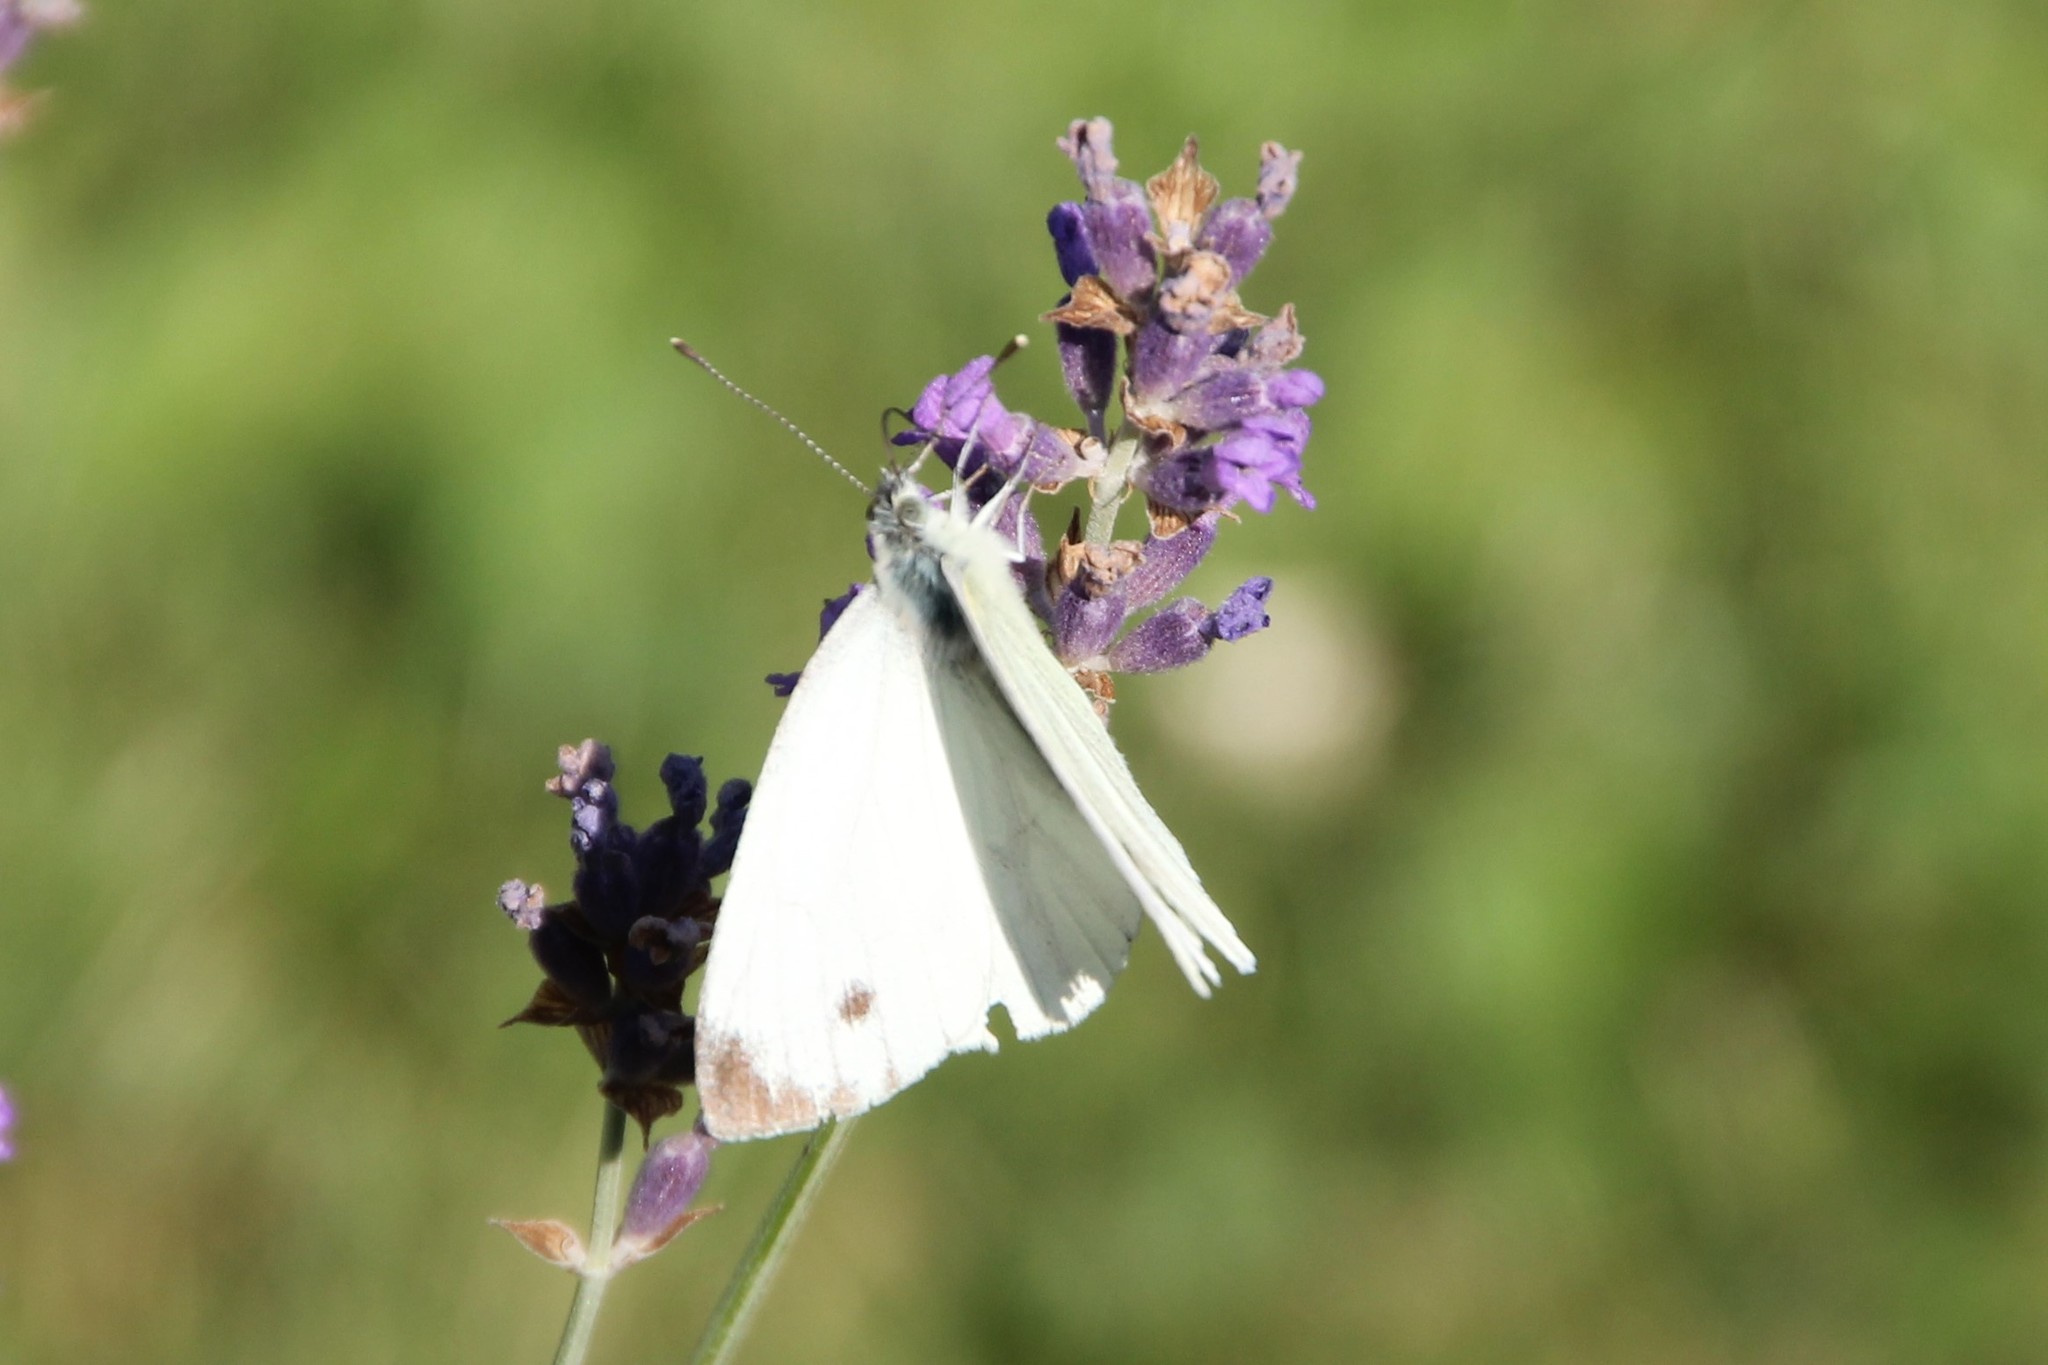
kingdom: Animalia
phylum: Arthropoda
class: Insecta
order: Lepidoptera
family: Pieridae
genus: Pieris
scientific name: Pieris napi
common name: Green-veined white
